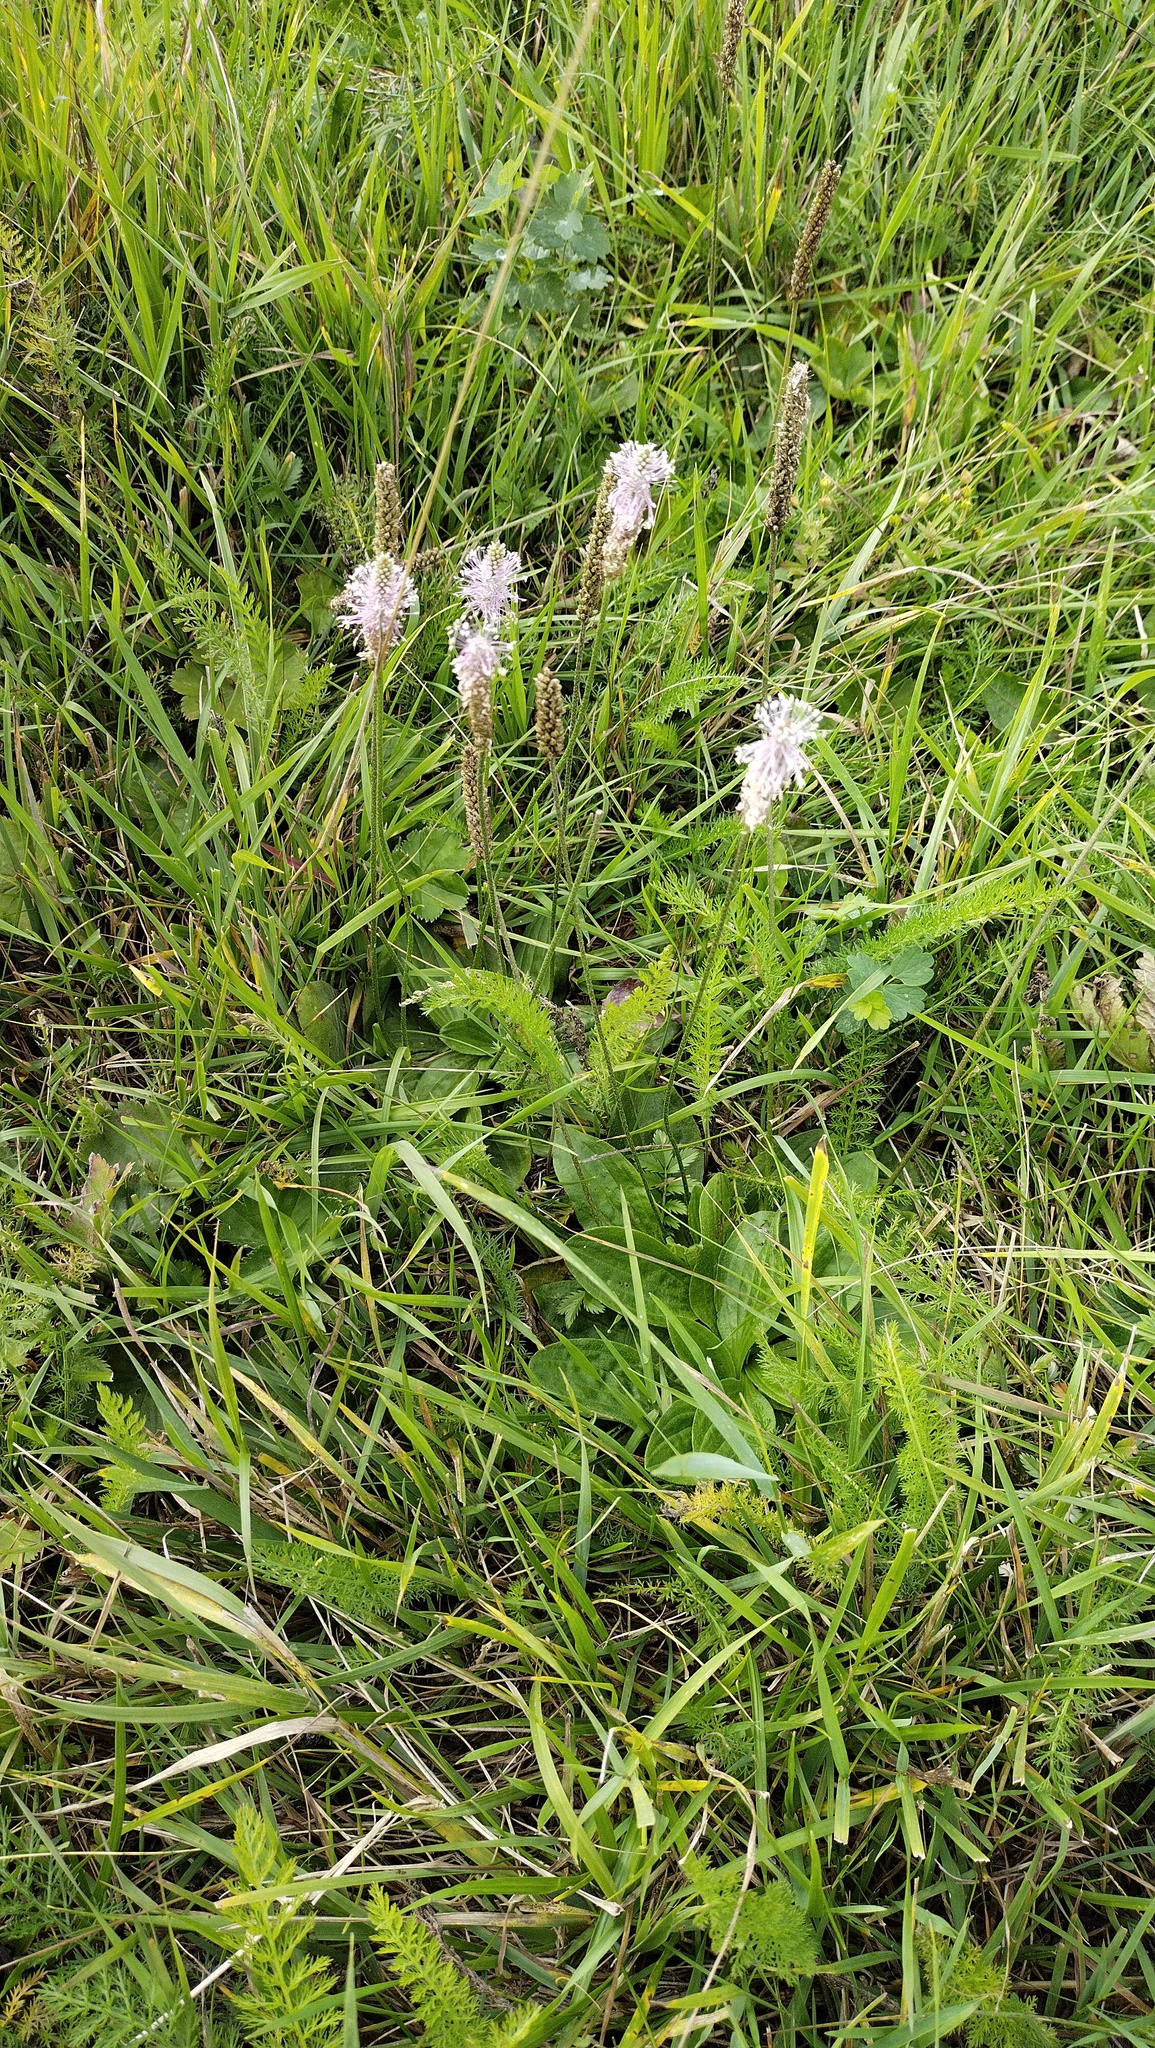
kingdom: Plantae
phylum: Tracheophyta
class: Magnoliopsida
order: Lamiales
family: Plantaginaceae
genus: Plantago
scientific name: Plantago media
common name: Hoary plantain
